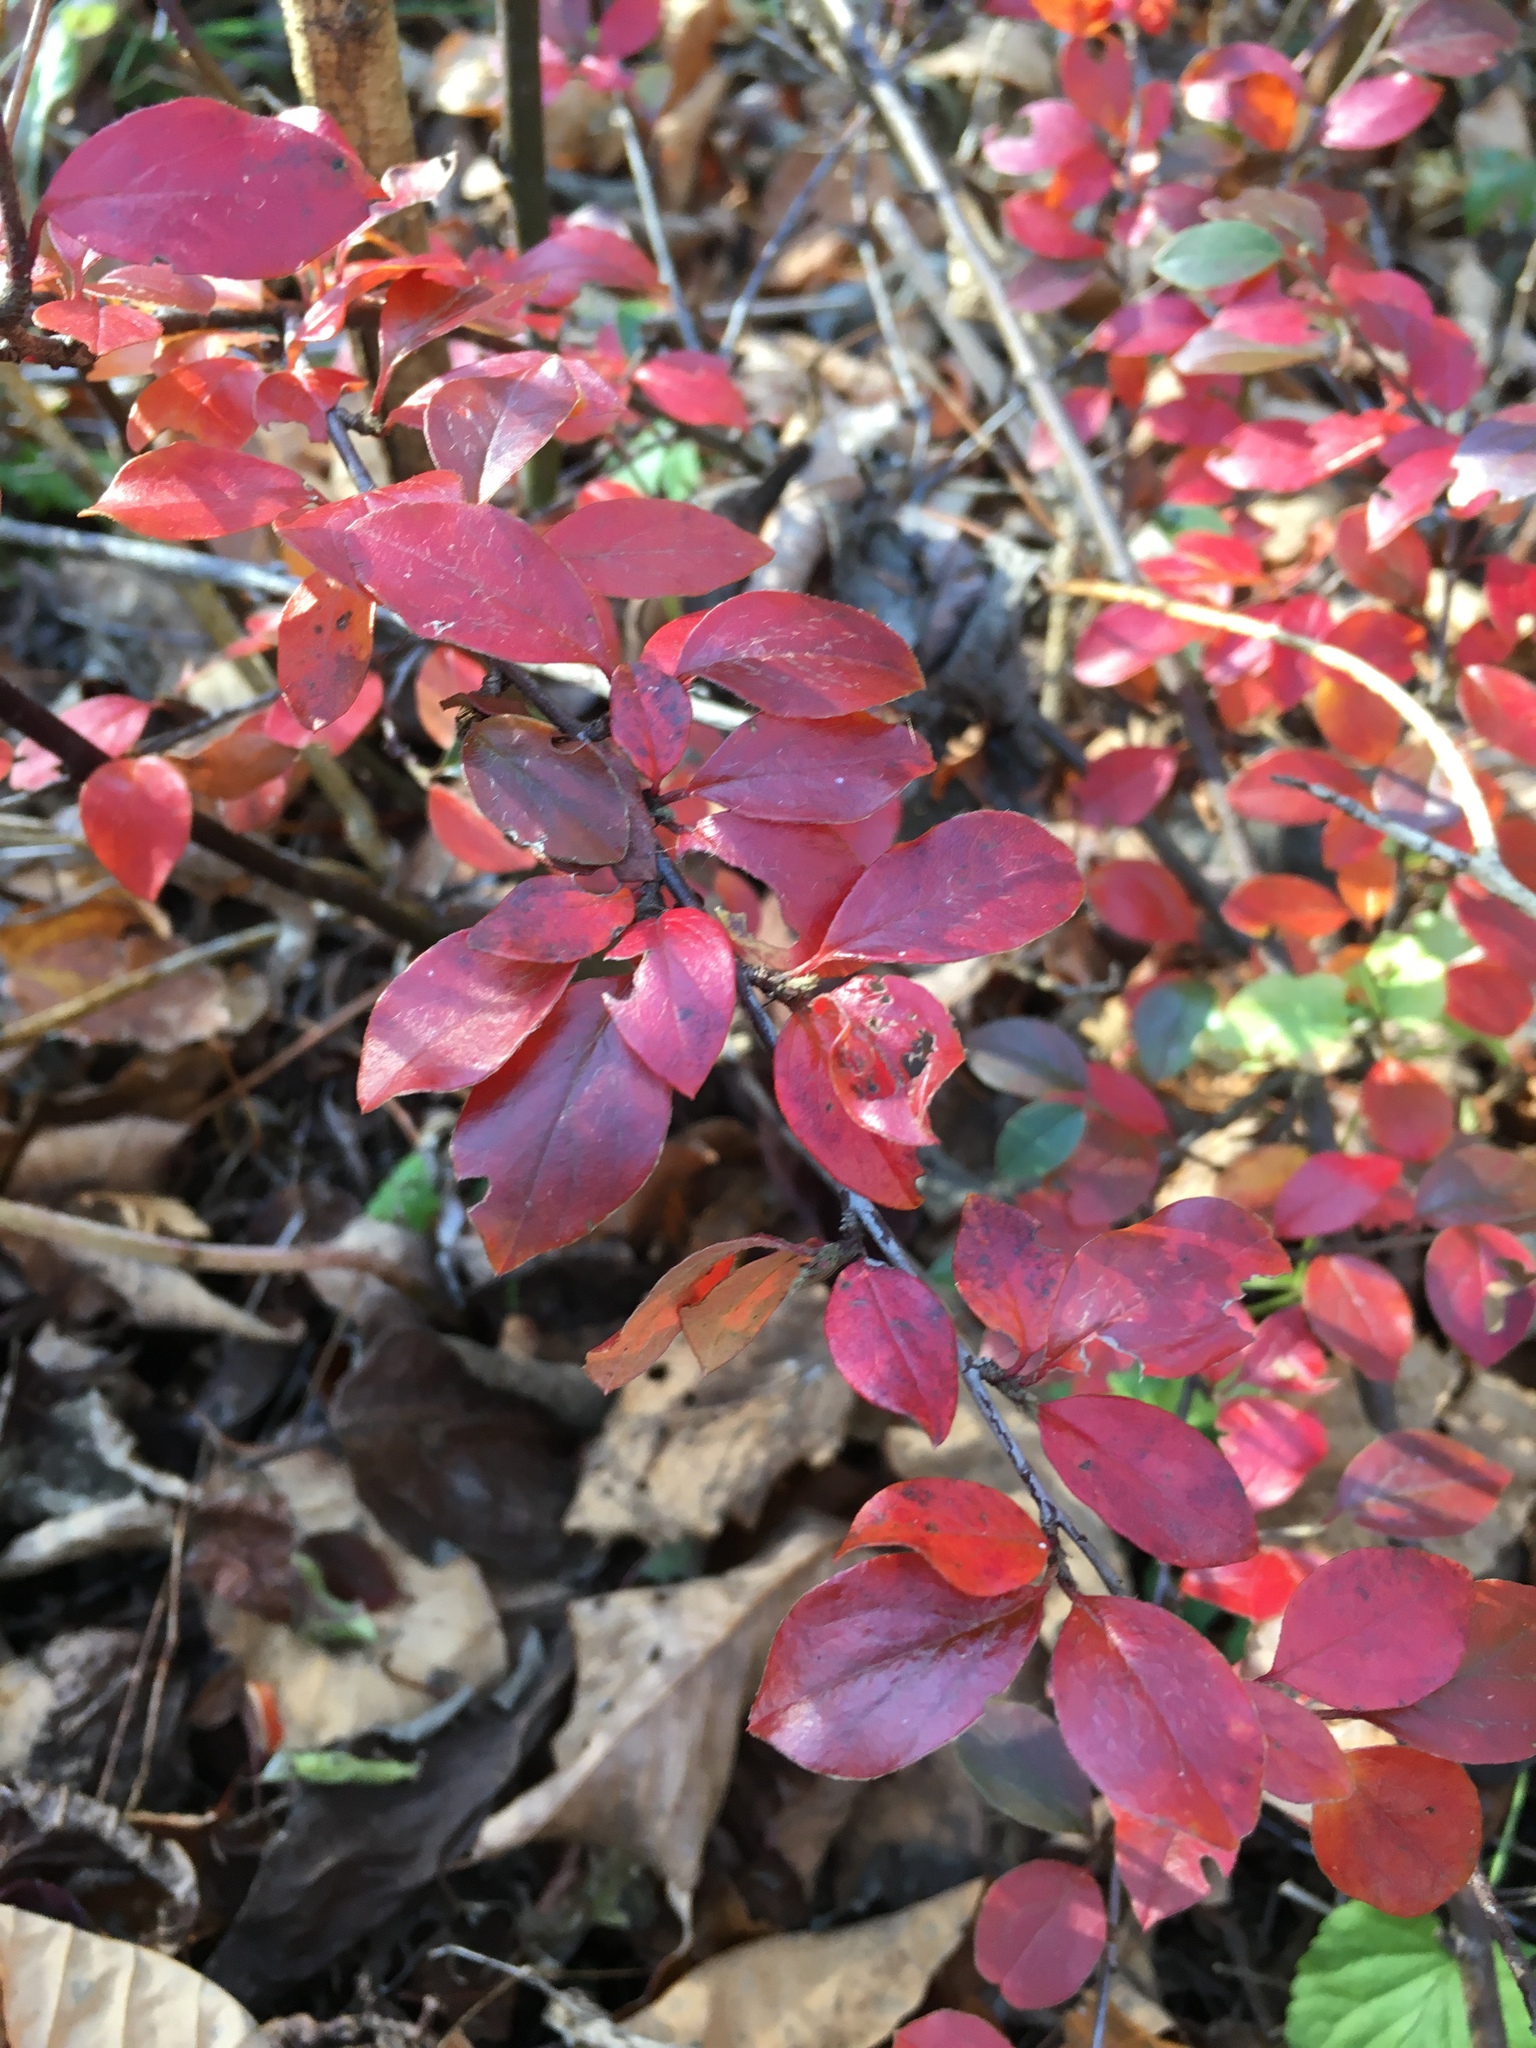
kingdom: Plantae
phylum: Tracheophyta
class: Magnoliopsida
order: Ranunculales
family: Berberidaceae
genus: Berberis
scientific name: Berberis thunbergii
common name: Japanese barberry
